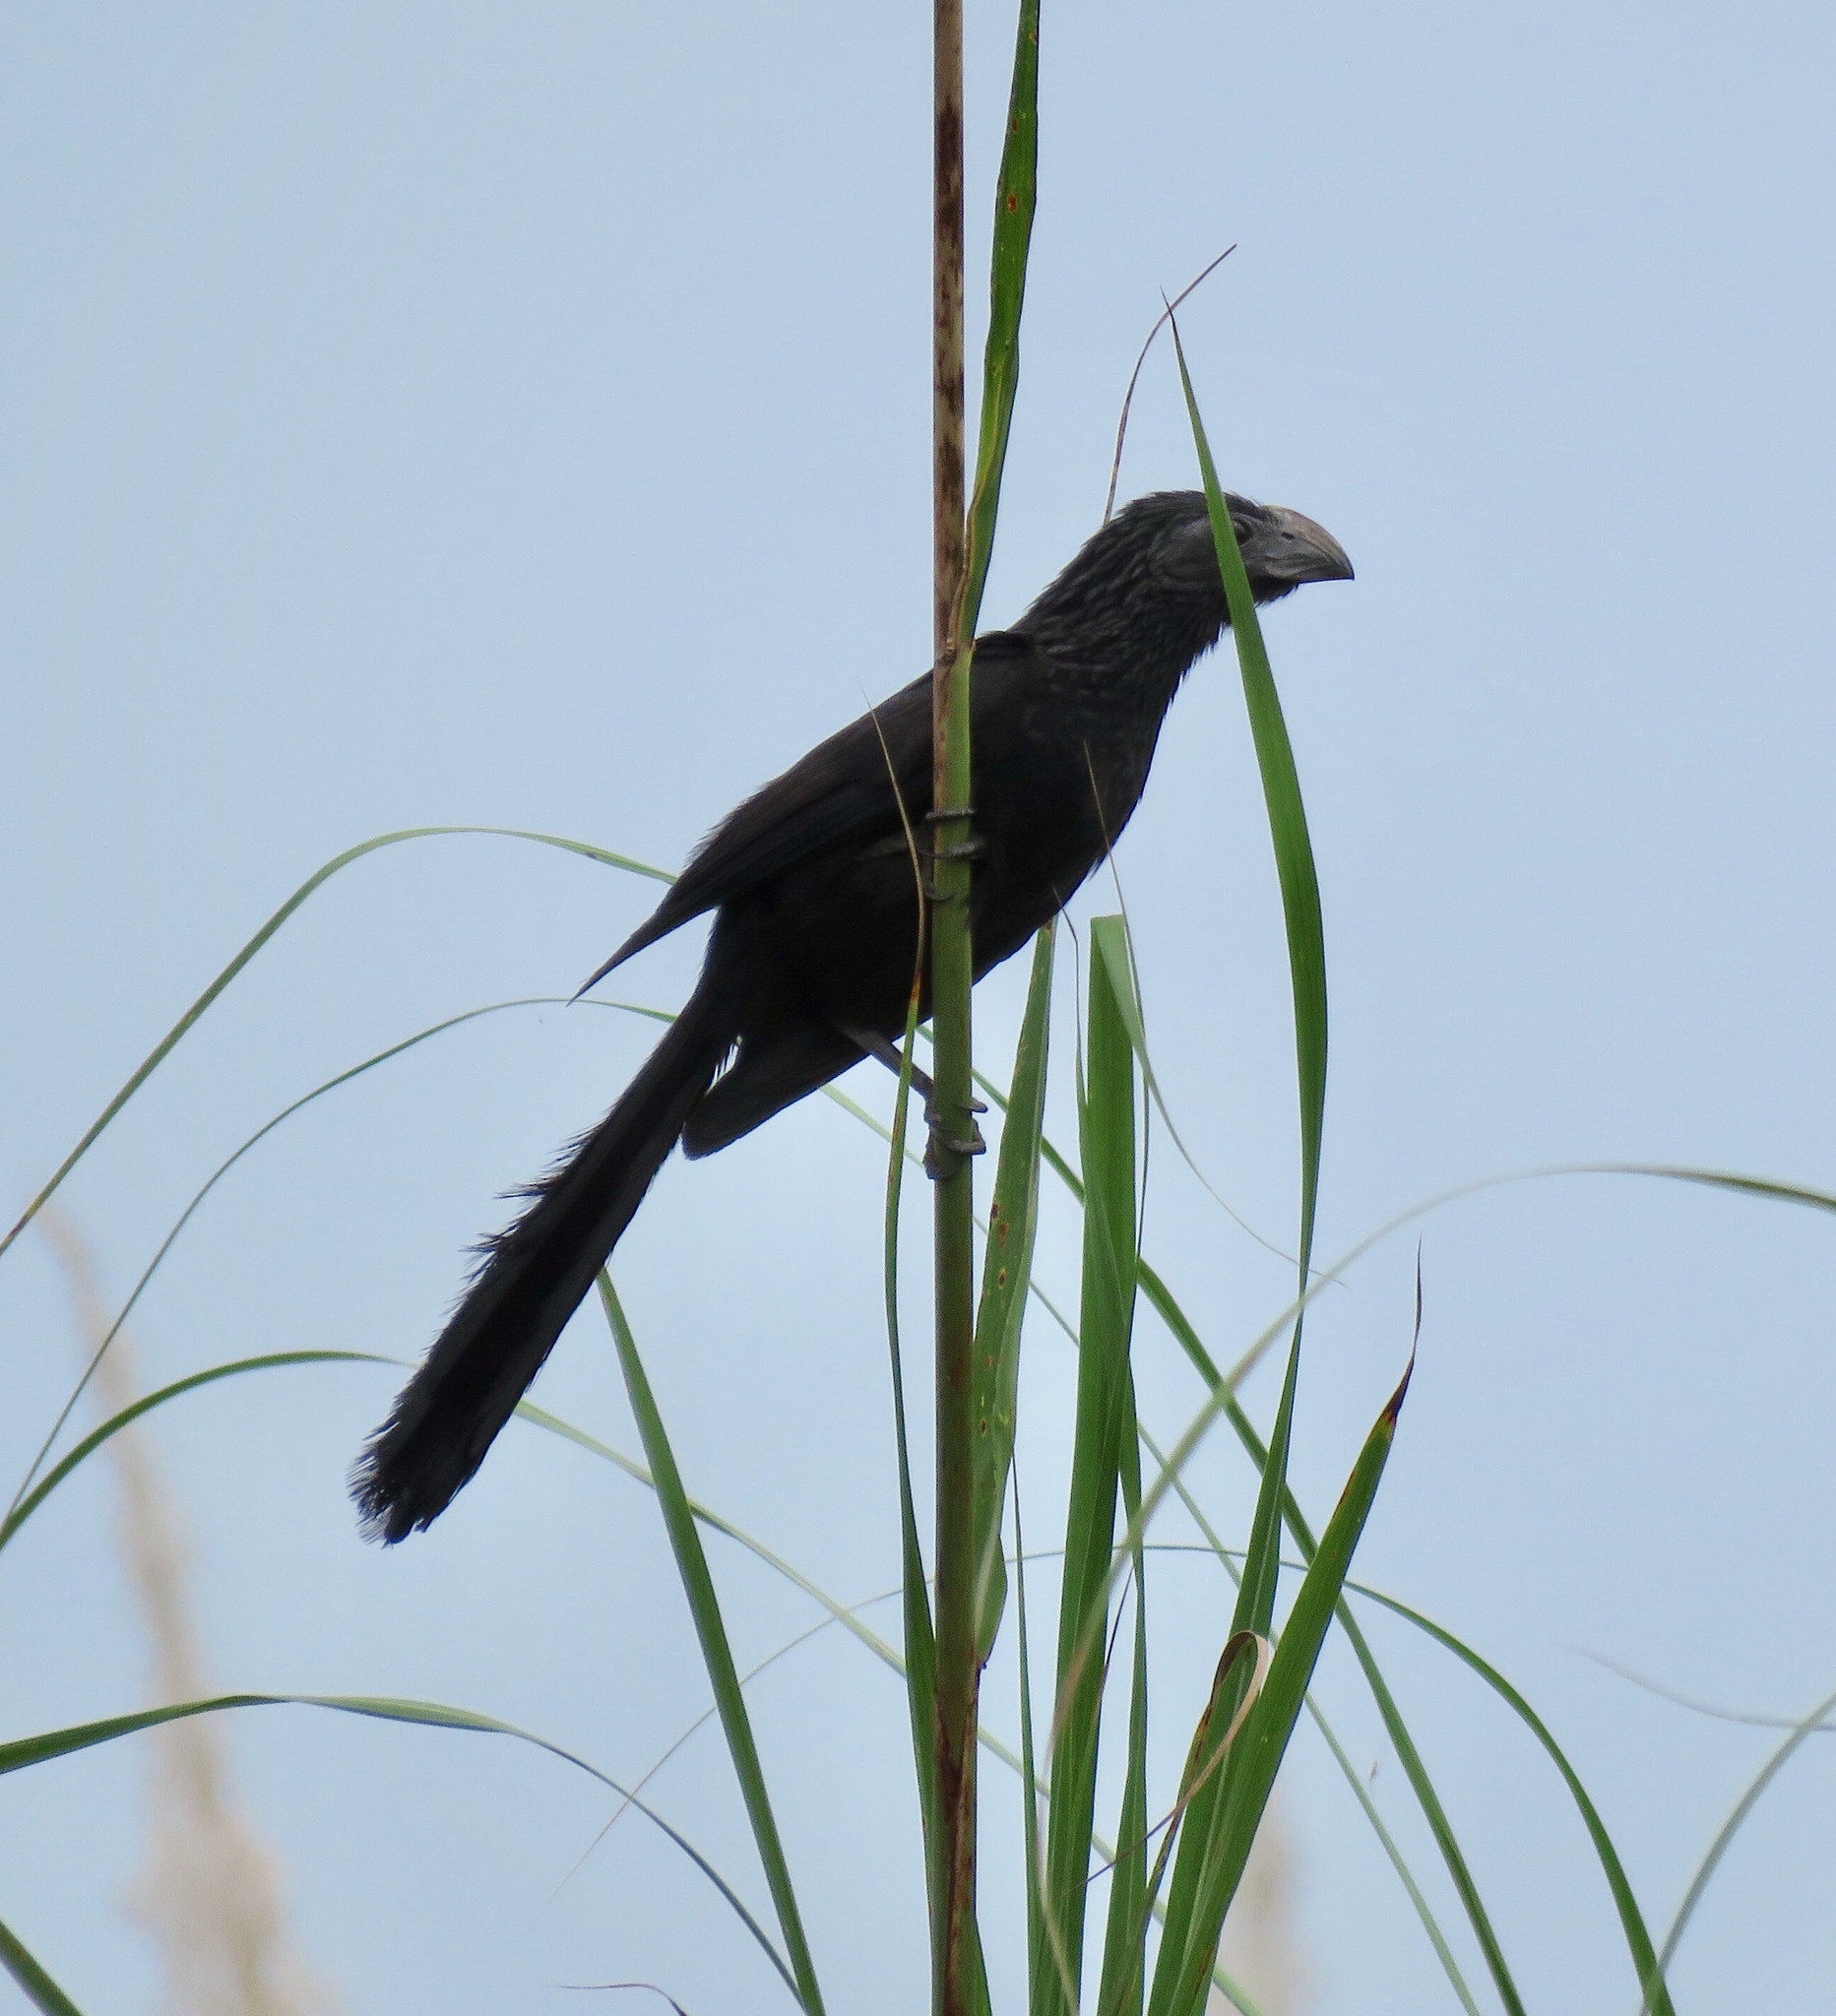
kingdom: Animalia
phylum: Chordata
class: Aves
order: Cuculiformes
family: Cuculidae
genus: Crotophaga
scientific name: Crotophaga sulcirostris
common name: Groove-billed ani
